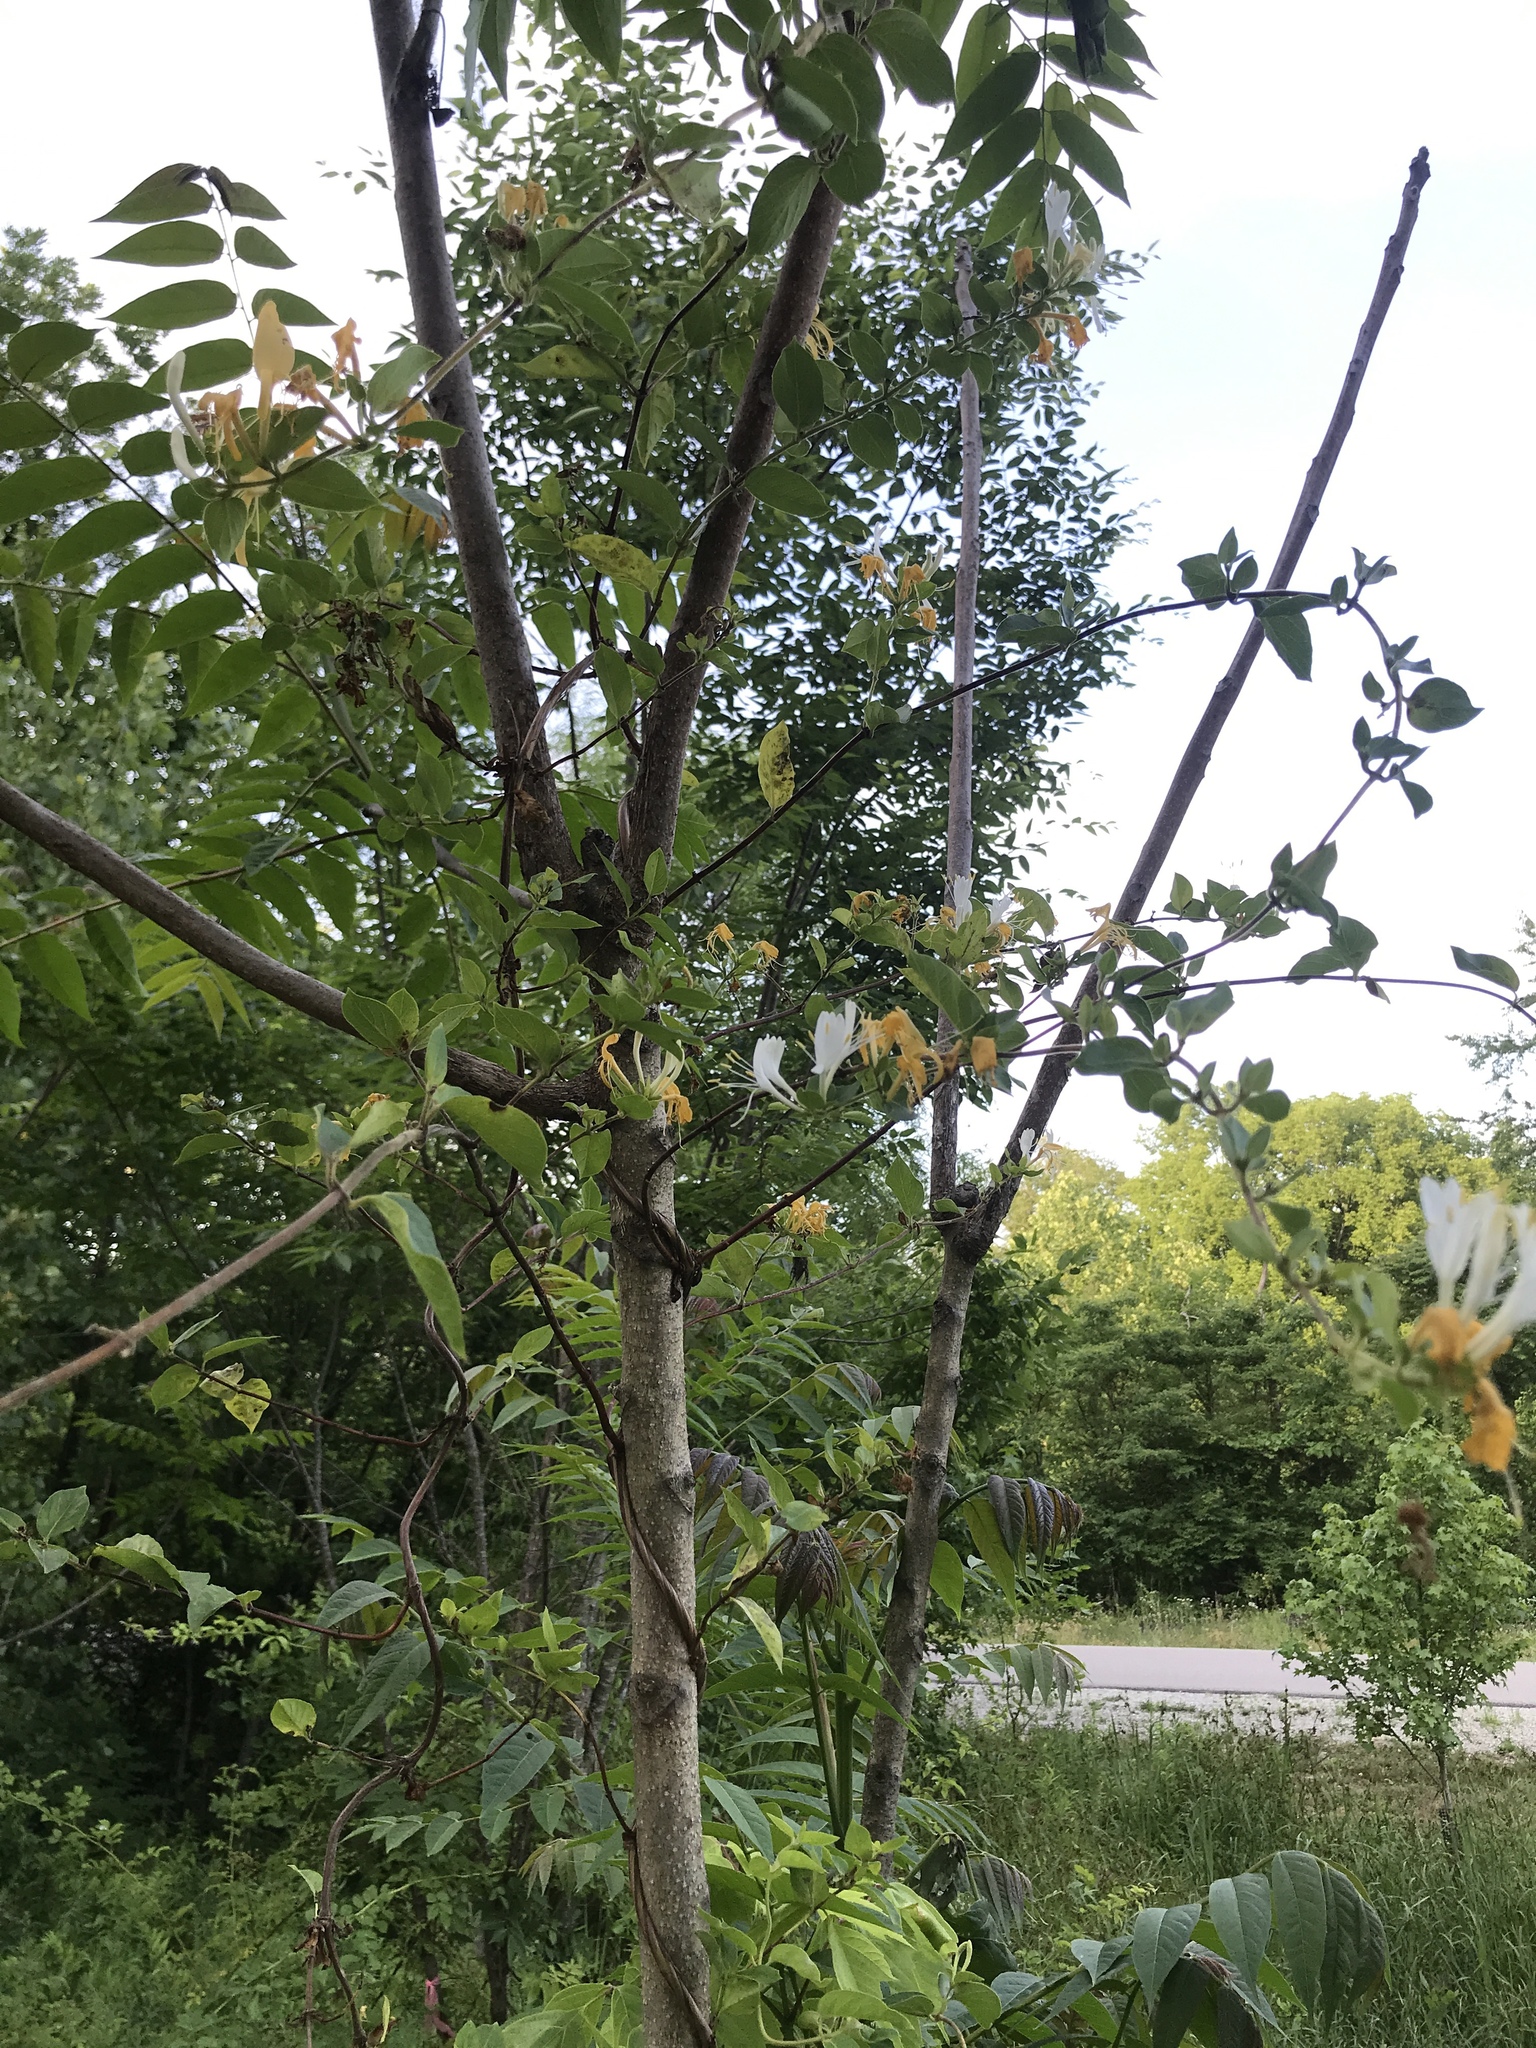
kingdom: Plantae
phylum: Tracheophyta
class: Magnoliopsida
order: Dipsacales
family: Caprifoliaceae
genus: Lonicera
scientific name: Lonicera japonica
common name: Japanese honeysuckle
